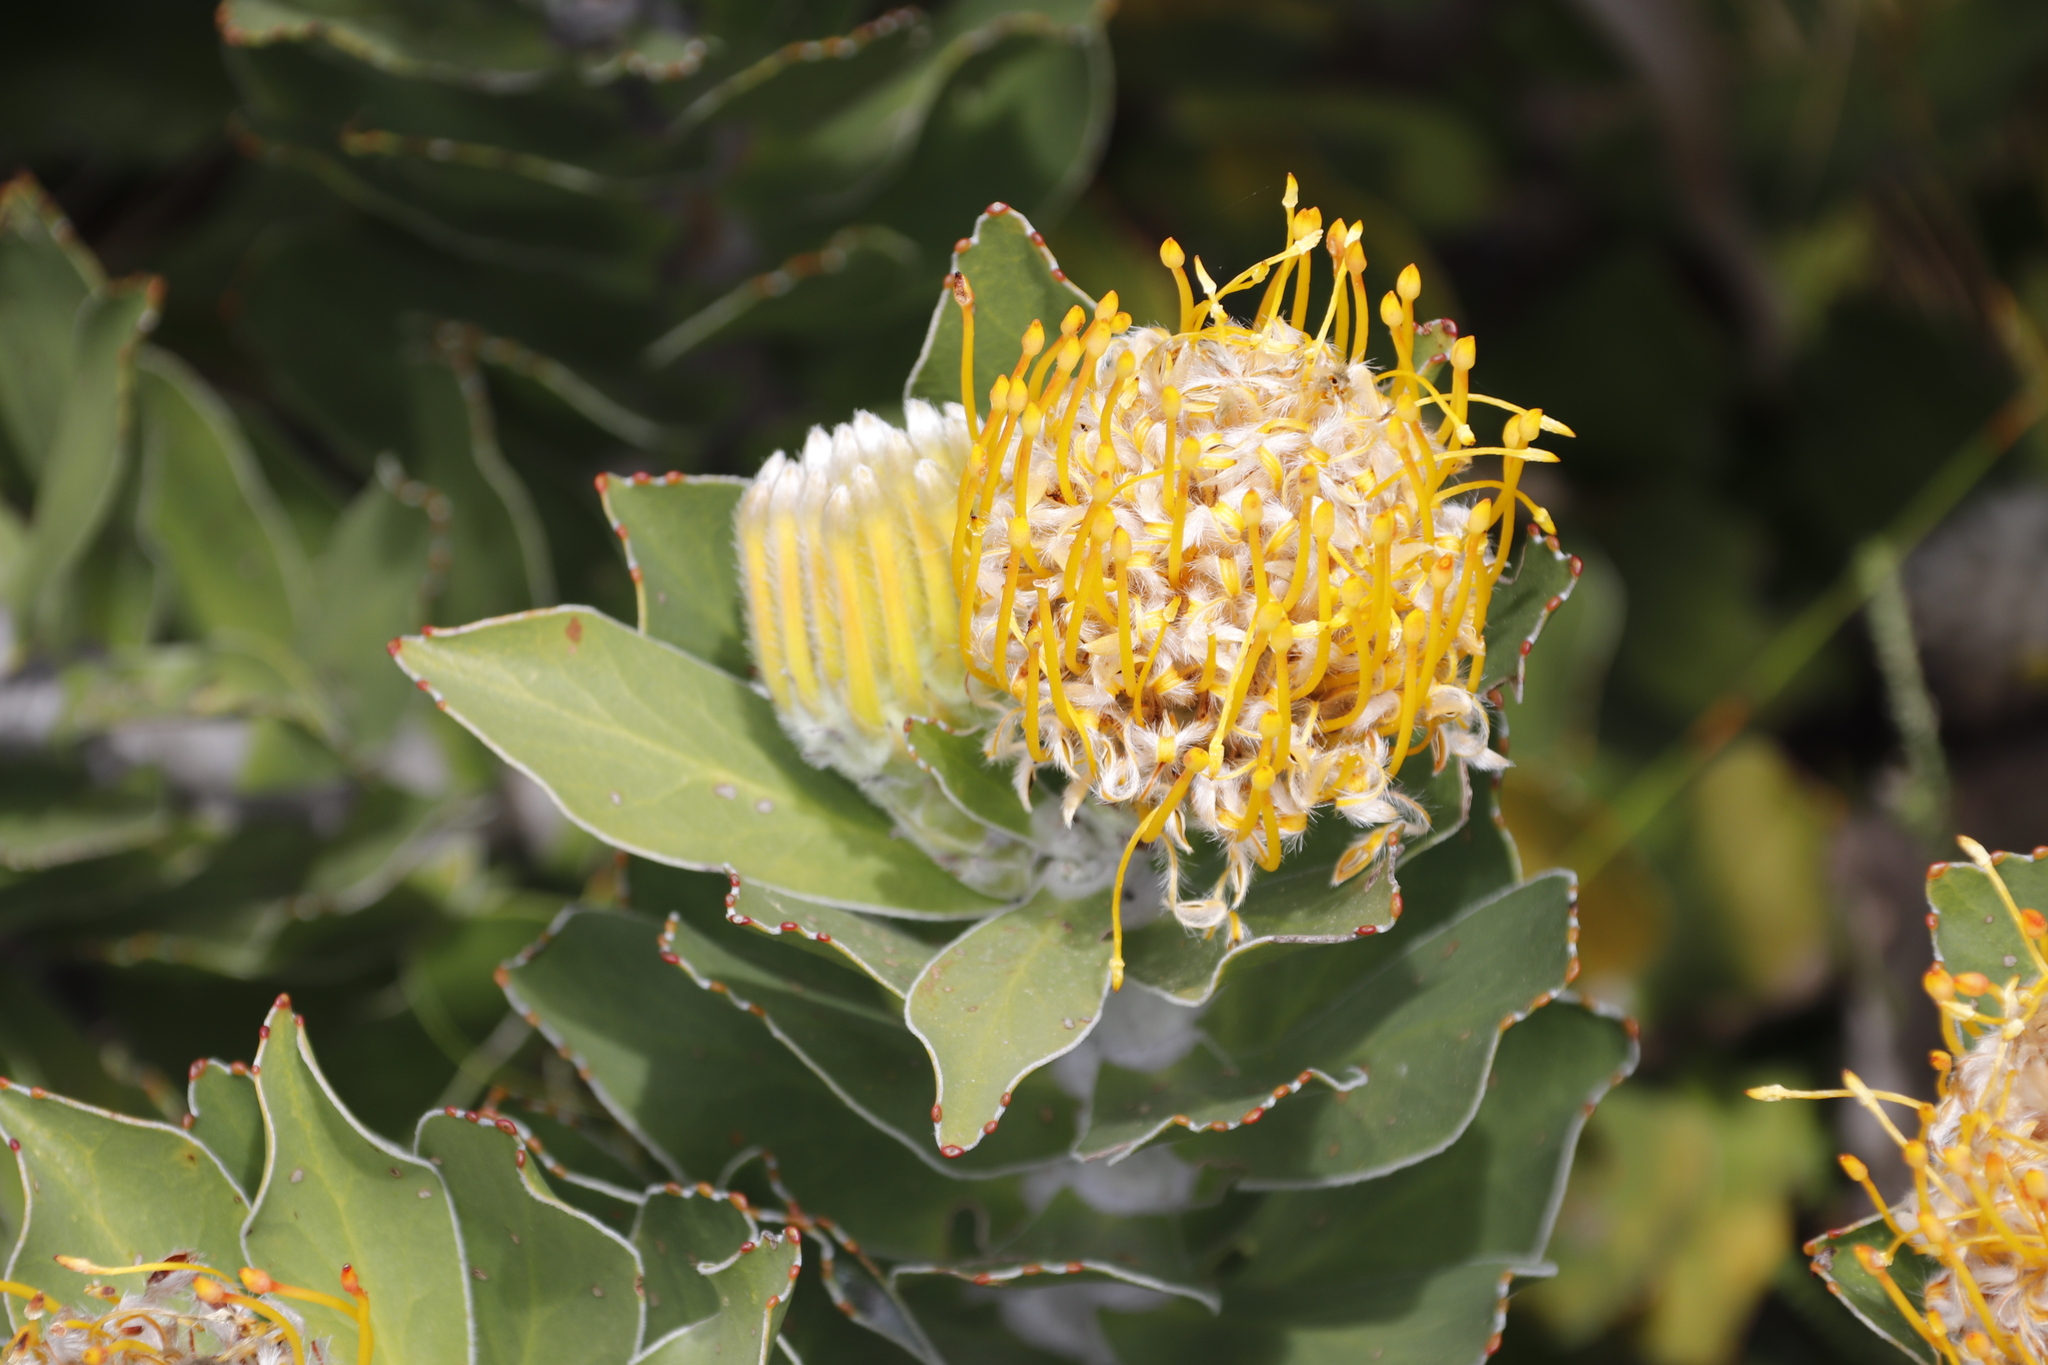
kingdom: Plantae
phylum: Tracheophyta
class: Magnoliopsida
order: Proteales
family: Proteaceae
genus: Leucospermum
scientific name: Leucospermum conocarpodendron
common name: Tree pincushion
